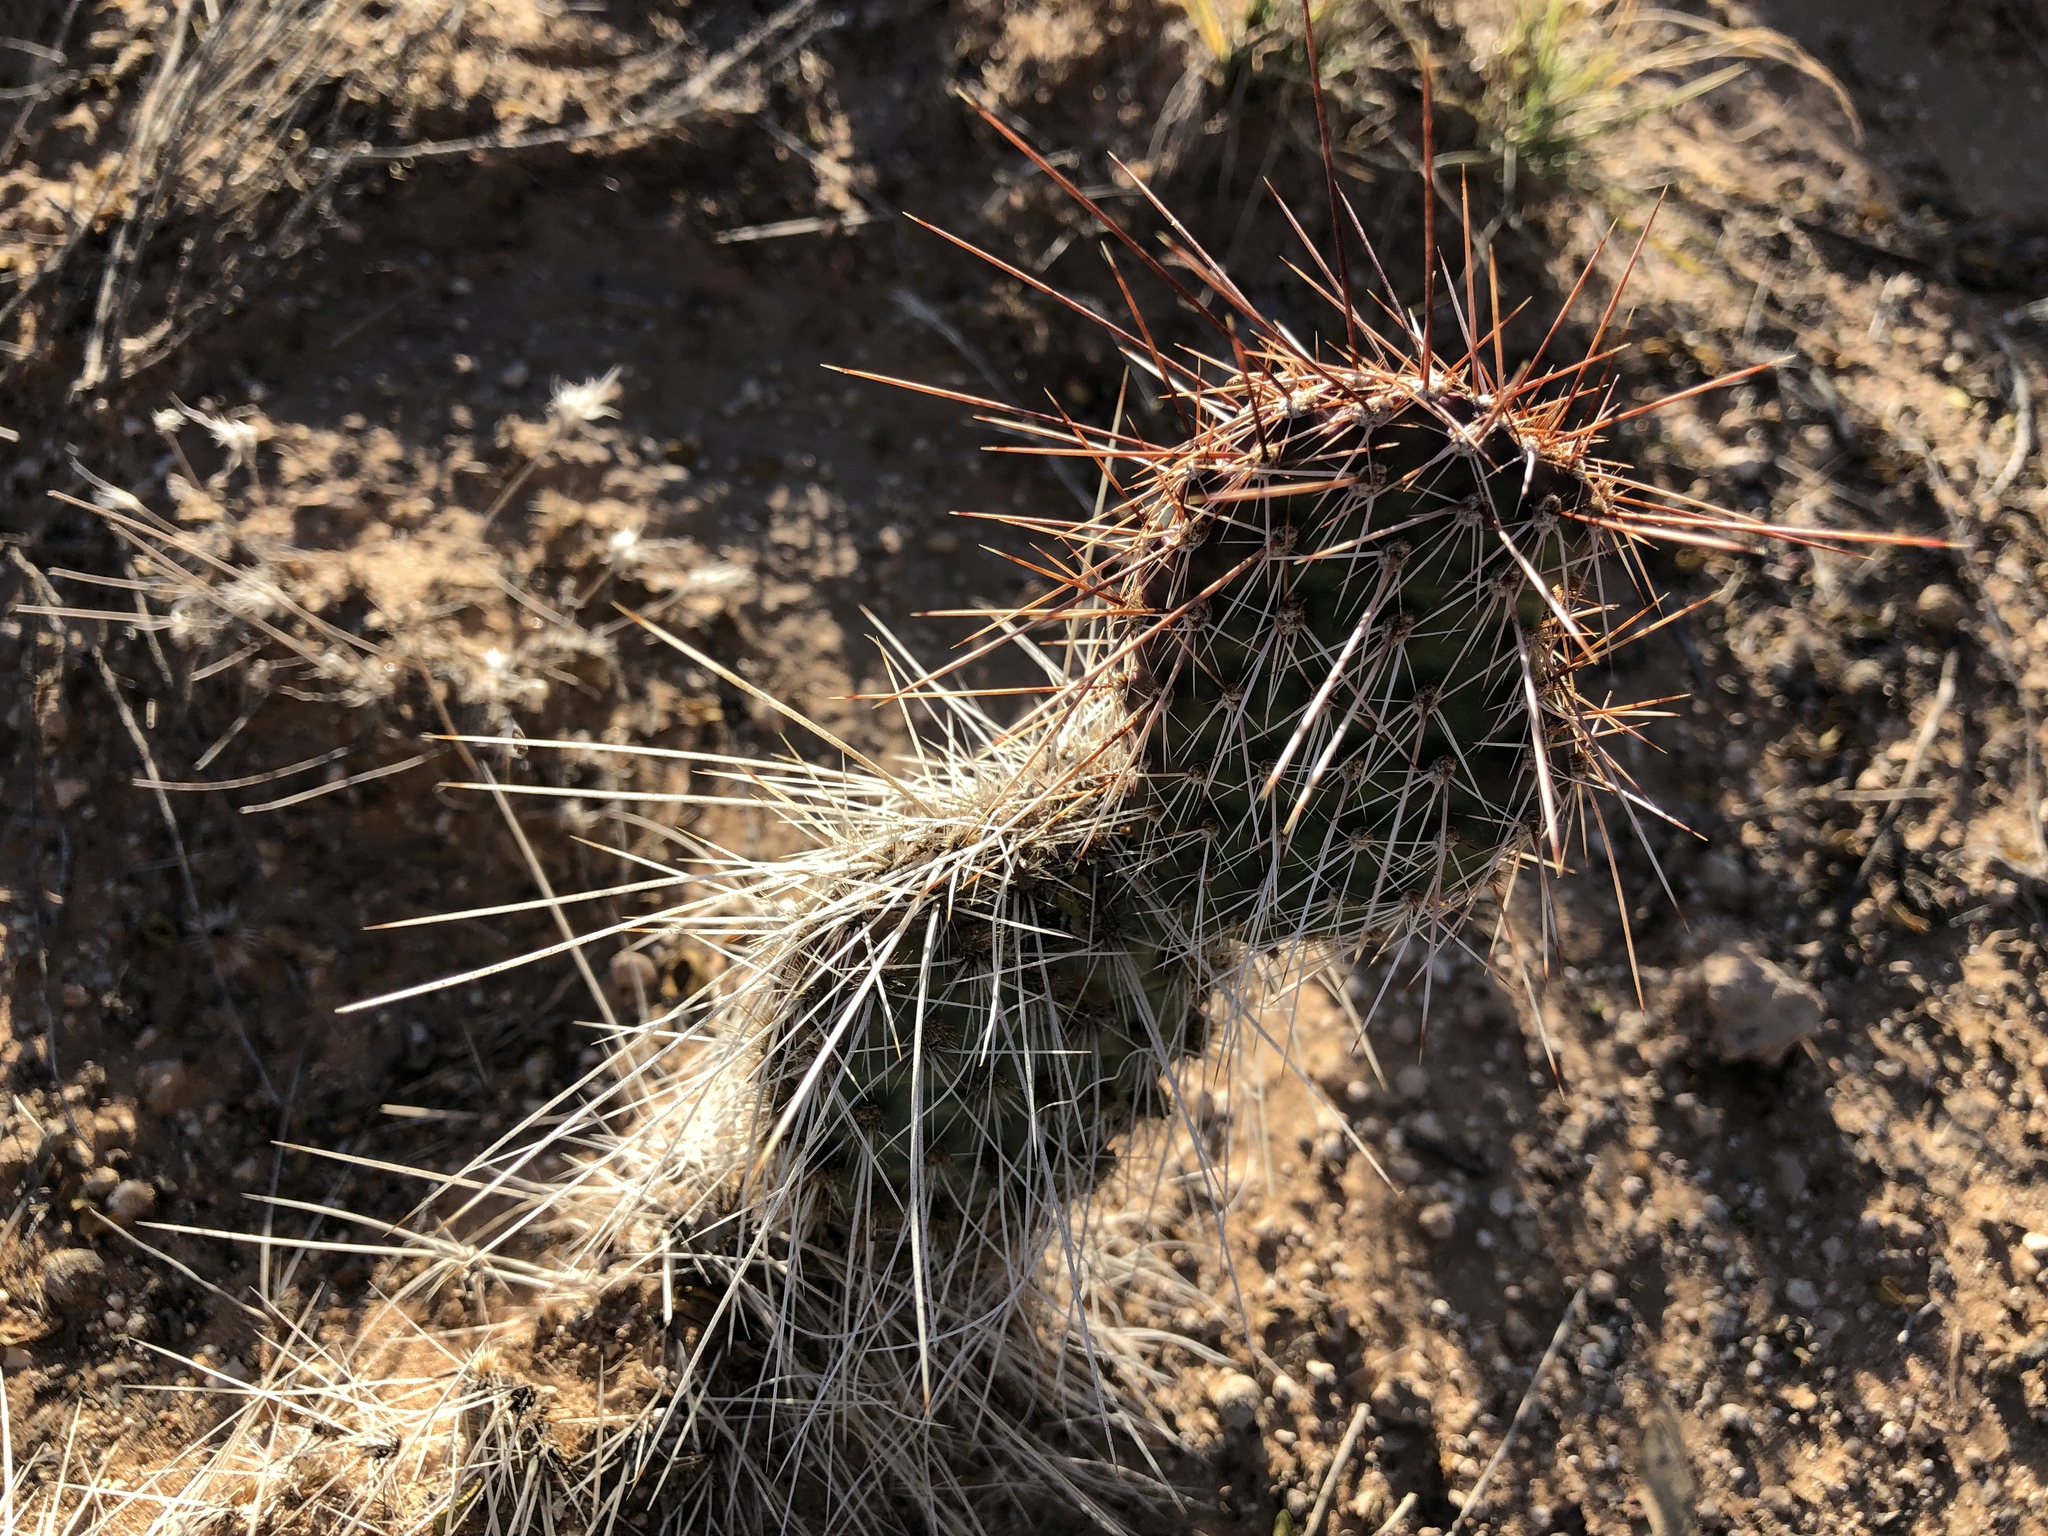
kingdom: Plantae
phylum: Tracheophyta
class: Magnoliopsida
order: Caryophyllales
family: Cactaceae
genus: Opuntia
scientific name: Opuntia polyacantha
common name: Plains prickly-pear
